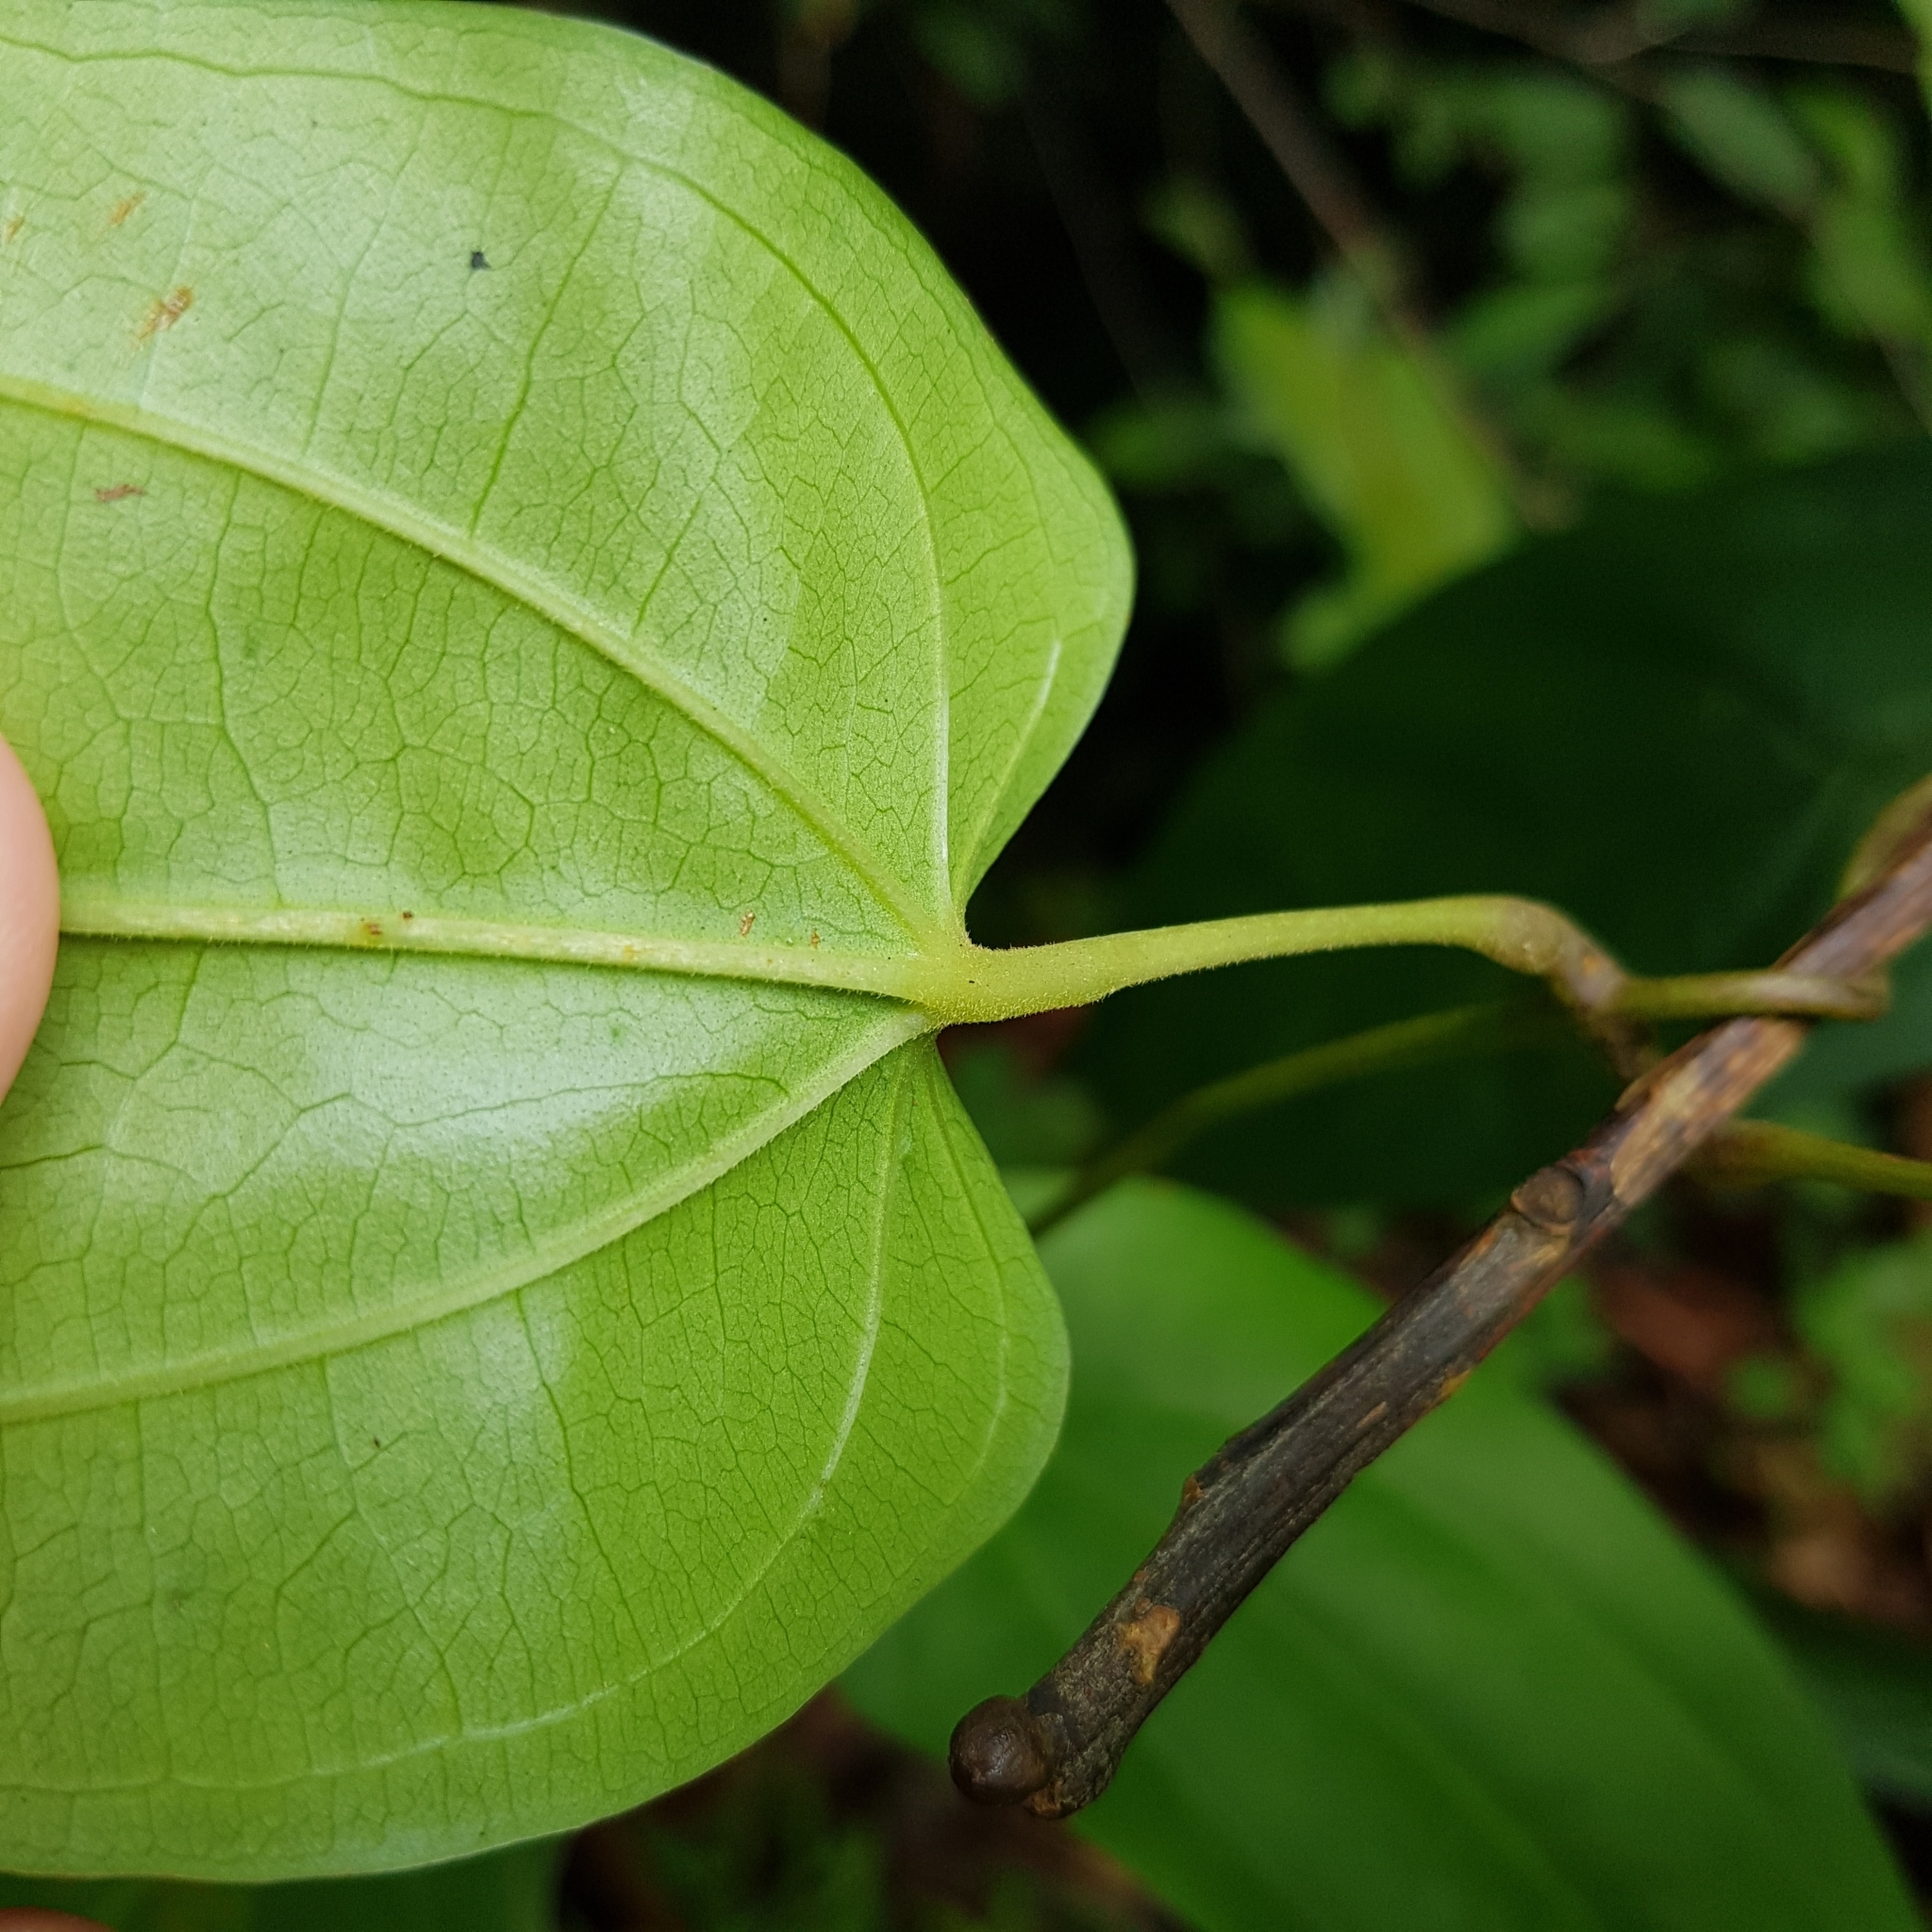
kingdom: Plantae
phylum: Tracheophyta
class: Liliopsida
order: Dioscoreales
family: Dioscoreaceae
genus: Dioscorea
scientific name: Dioscorea pyrifolia
